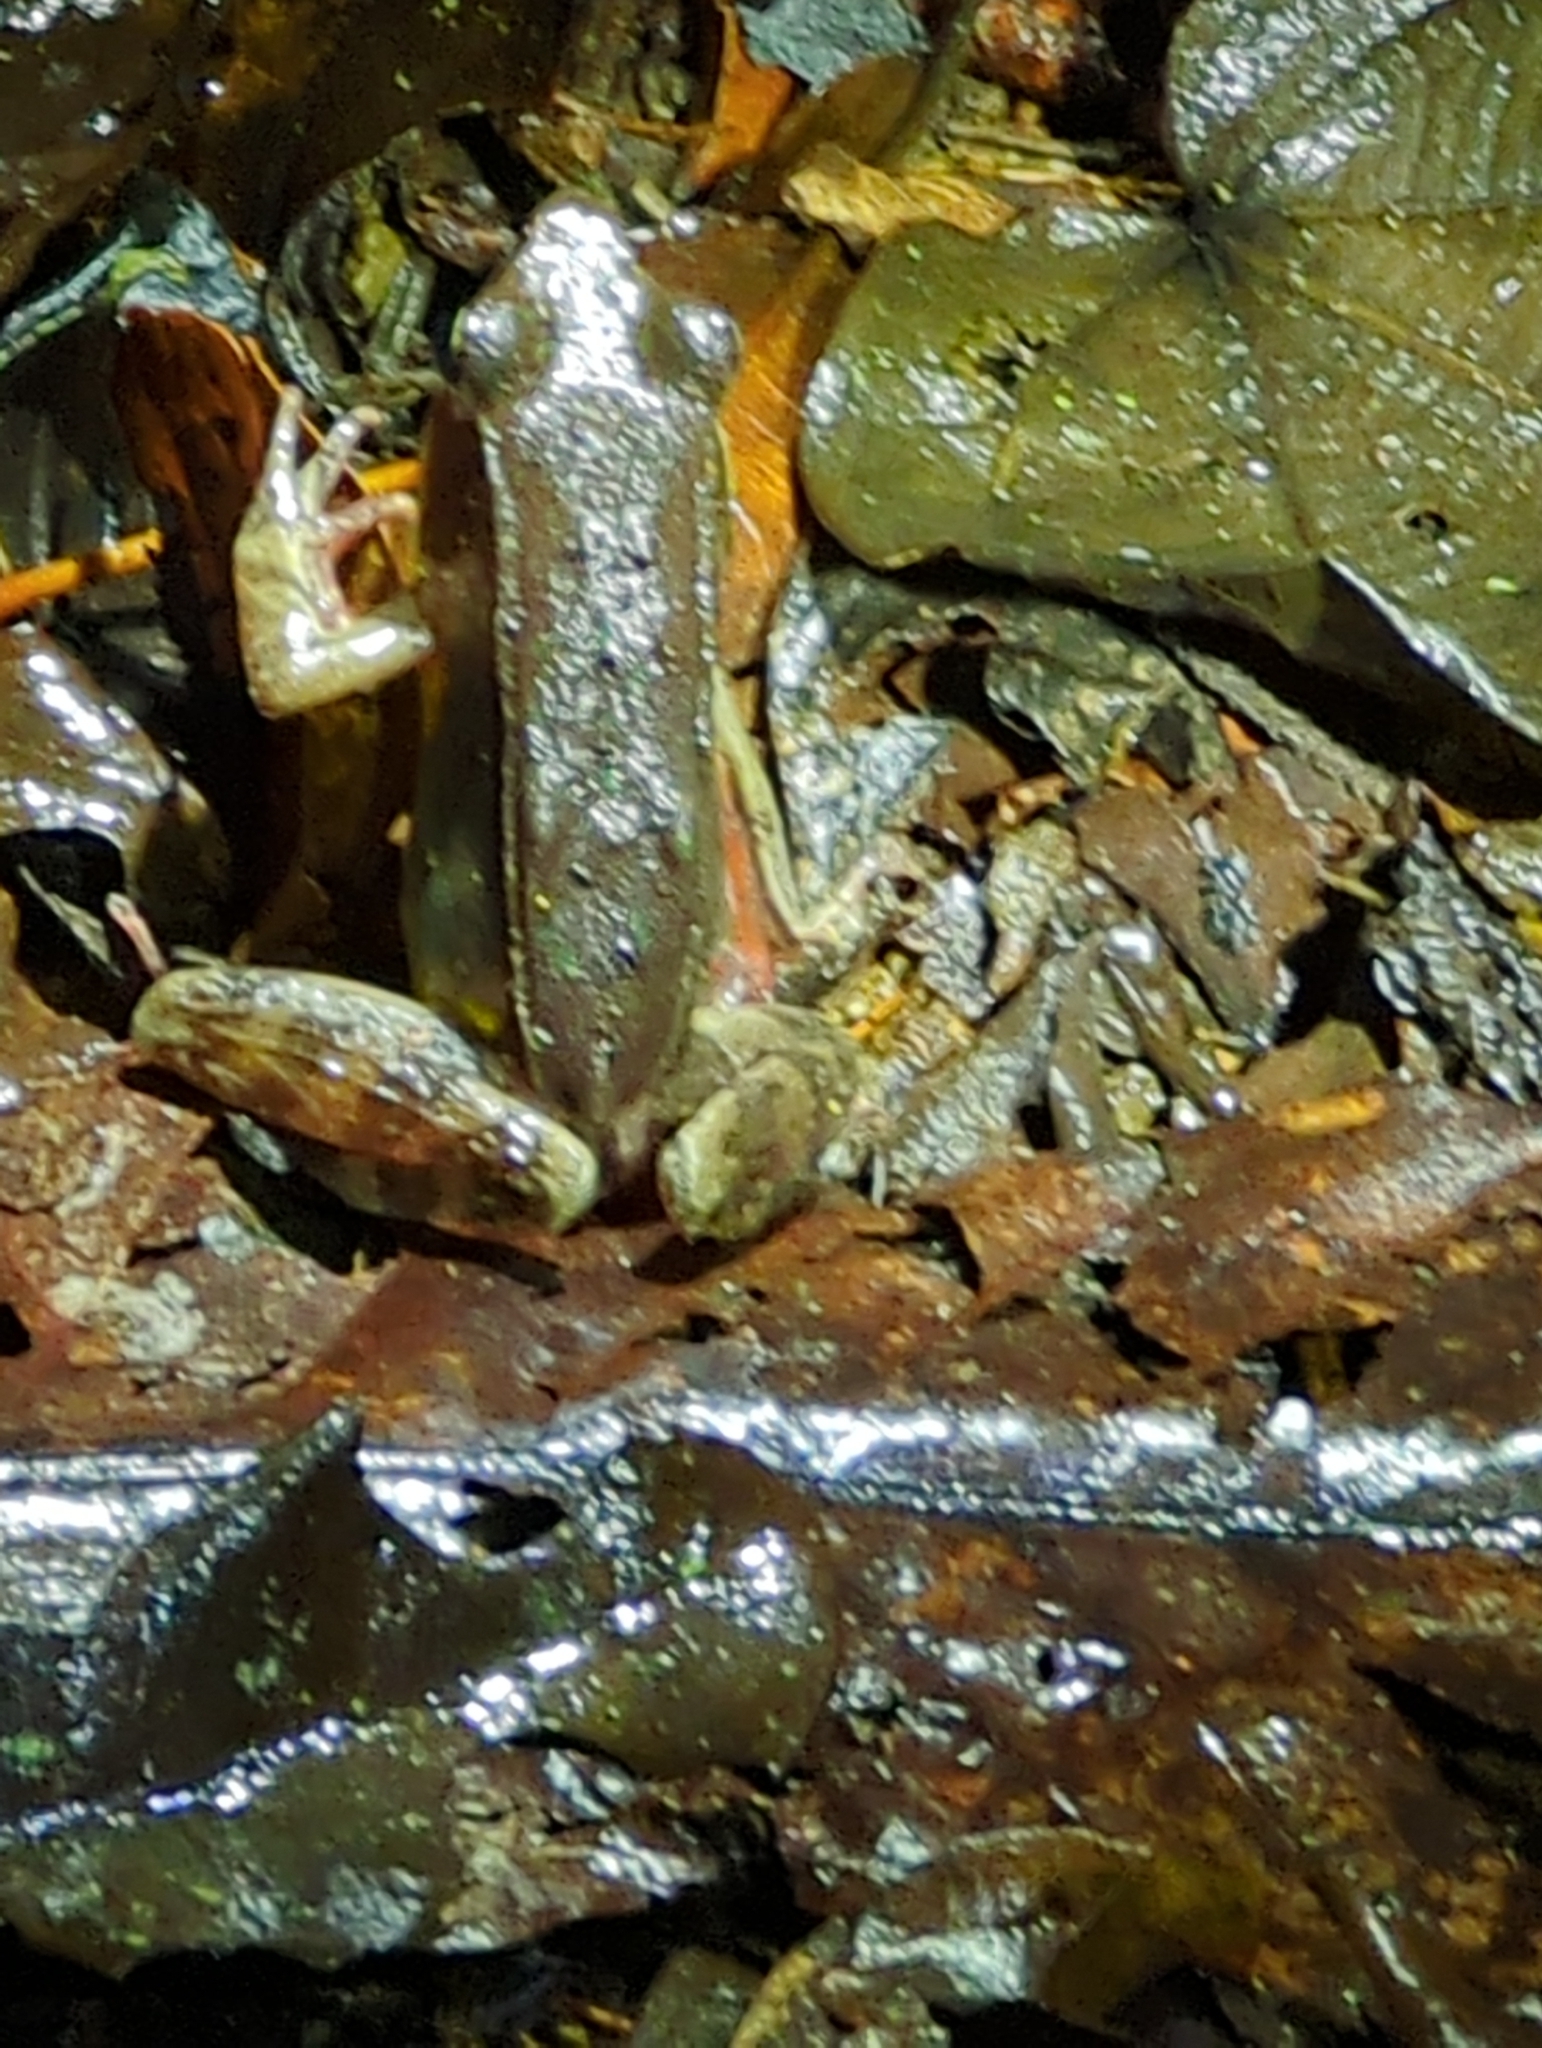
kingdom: Animalia
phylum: Chordata
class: Amphibia
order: Anura
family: Ranidae
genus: Lithobates
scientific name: Lithobates warszewitschii
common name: Warszewitsch's frog
